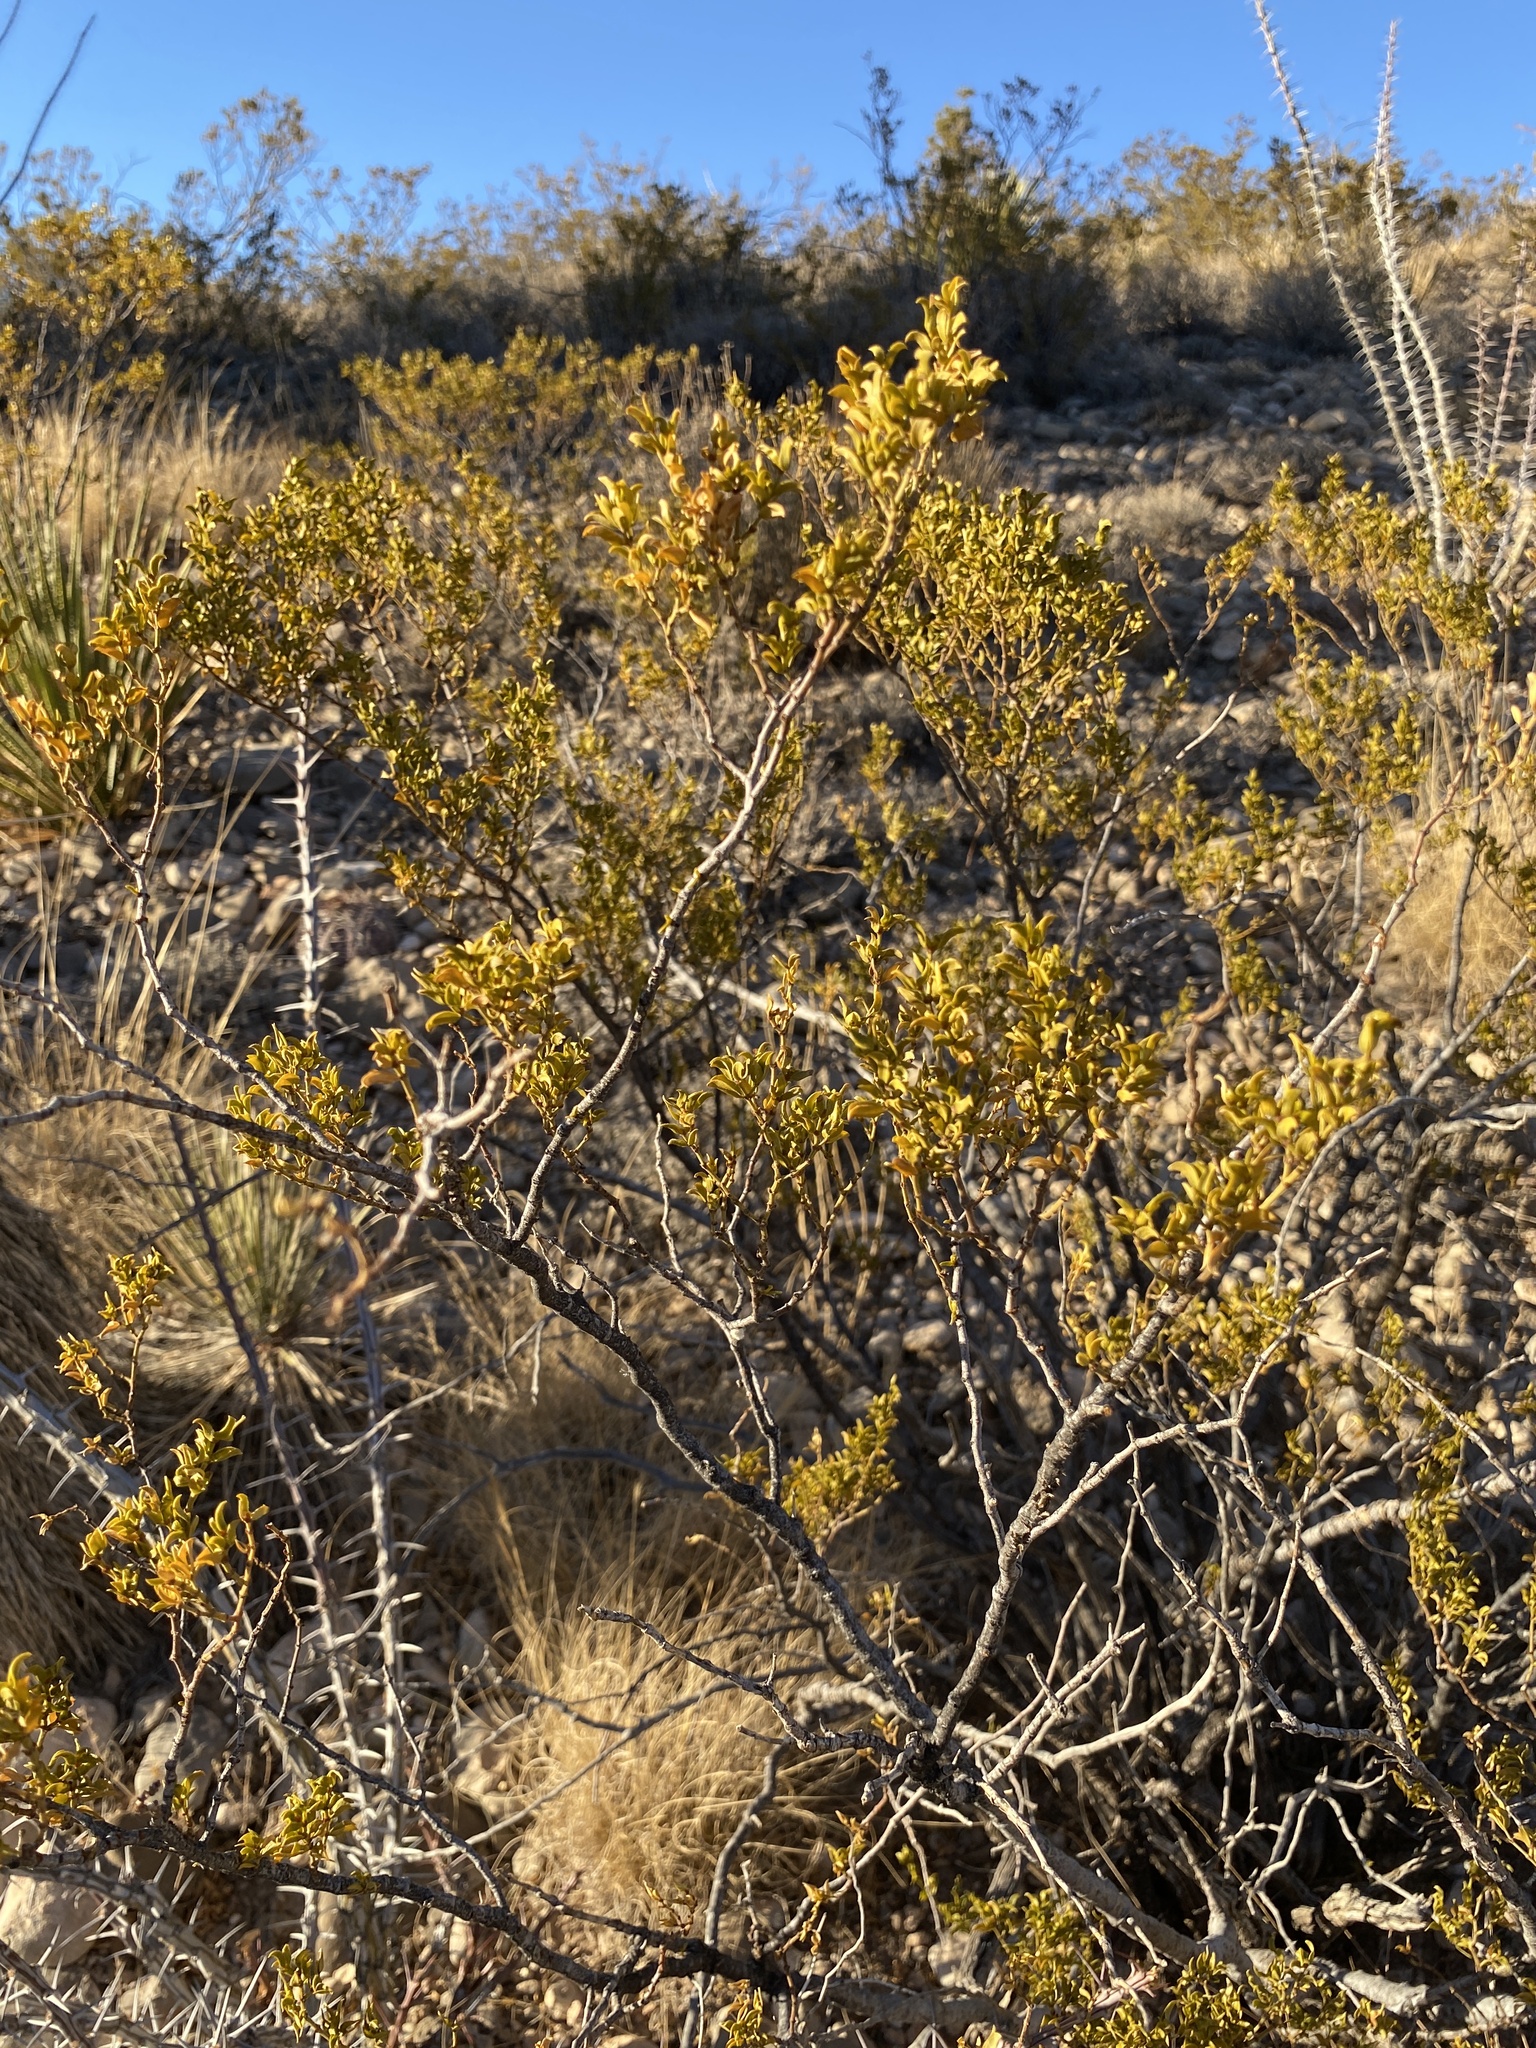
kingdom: Plantae
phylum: Tracheophyta
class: Magnoliopsida
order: Zygophyllales
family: Zygophyllaceae
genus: Larrea
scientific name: Larrea tridentata
